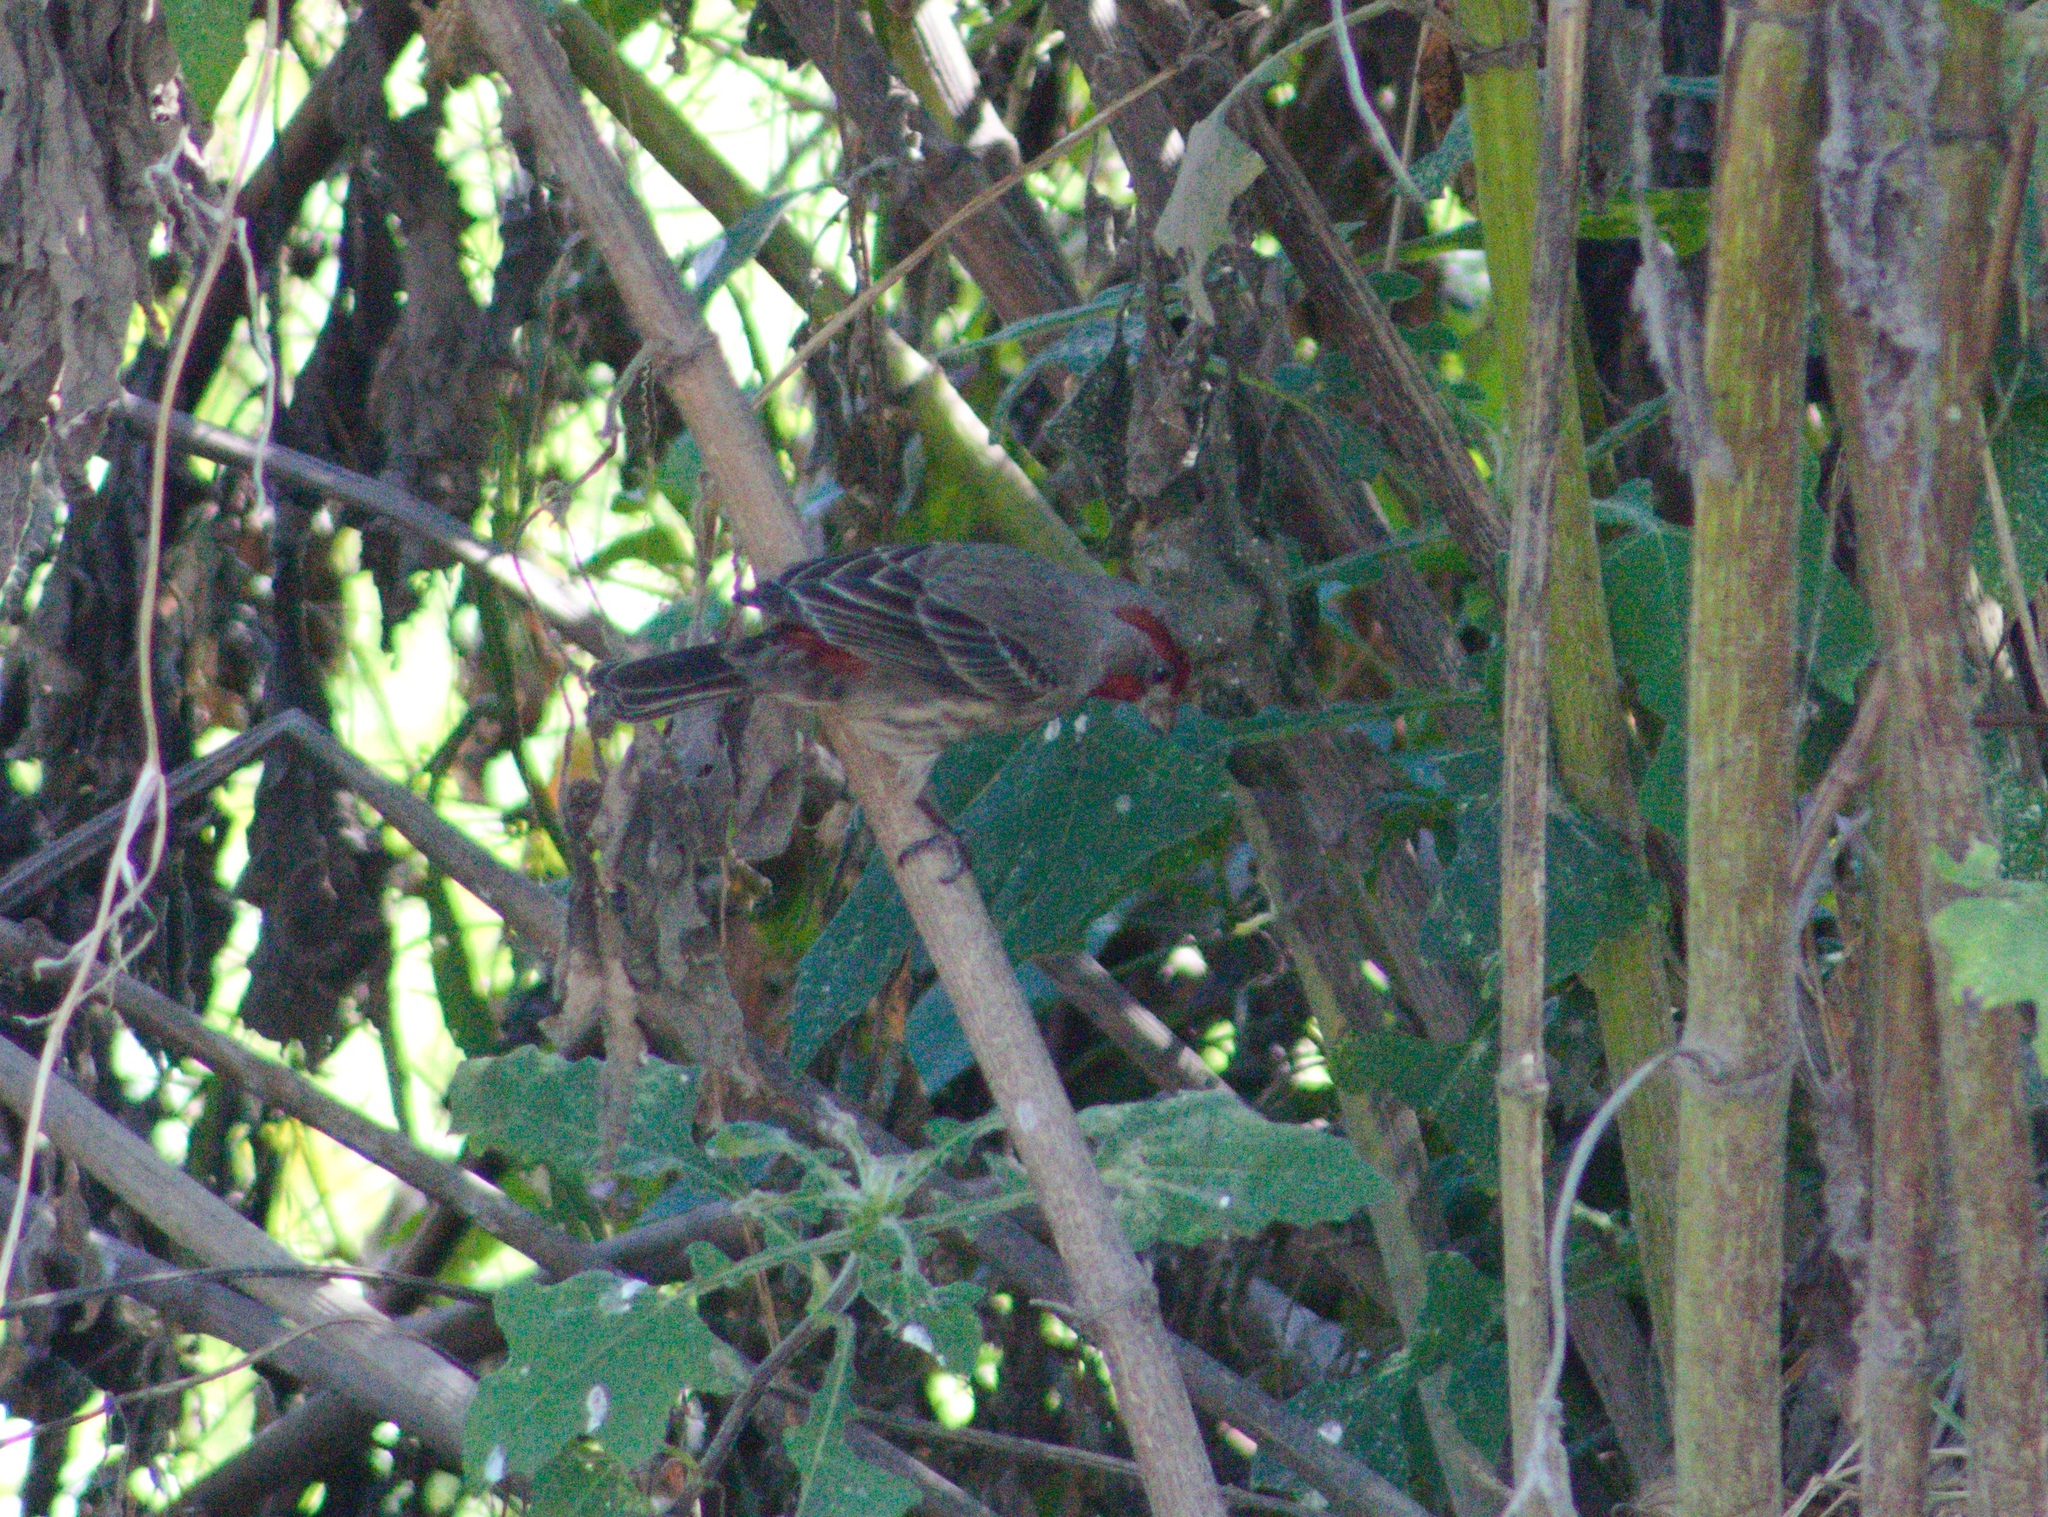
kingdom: Animalia
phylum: Chordata
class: Aves
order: Passeriformes
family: Fringillidae
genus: Haemorhous
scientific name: Haemorhous mexicanus
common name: House finch
